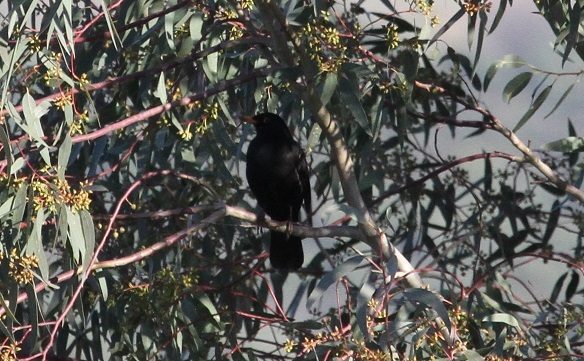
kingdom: Animalia
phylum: Chordata
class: Aves
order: Passeriformes
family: Turdidae
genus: Turdus
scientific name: Turdus merula
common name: Common blackbird
